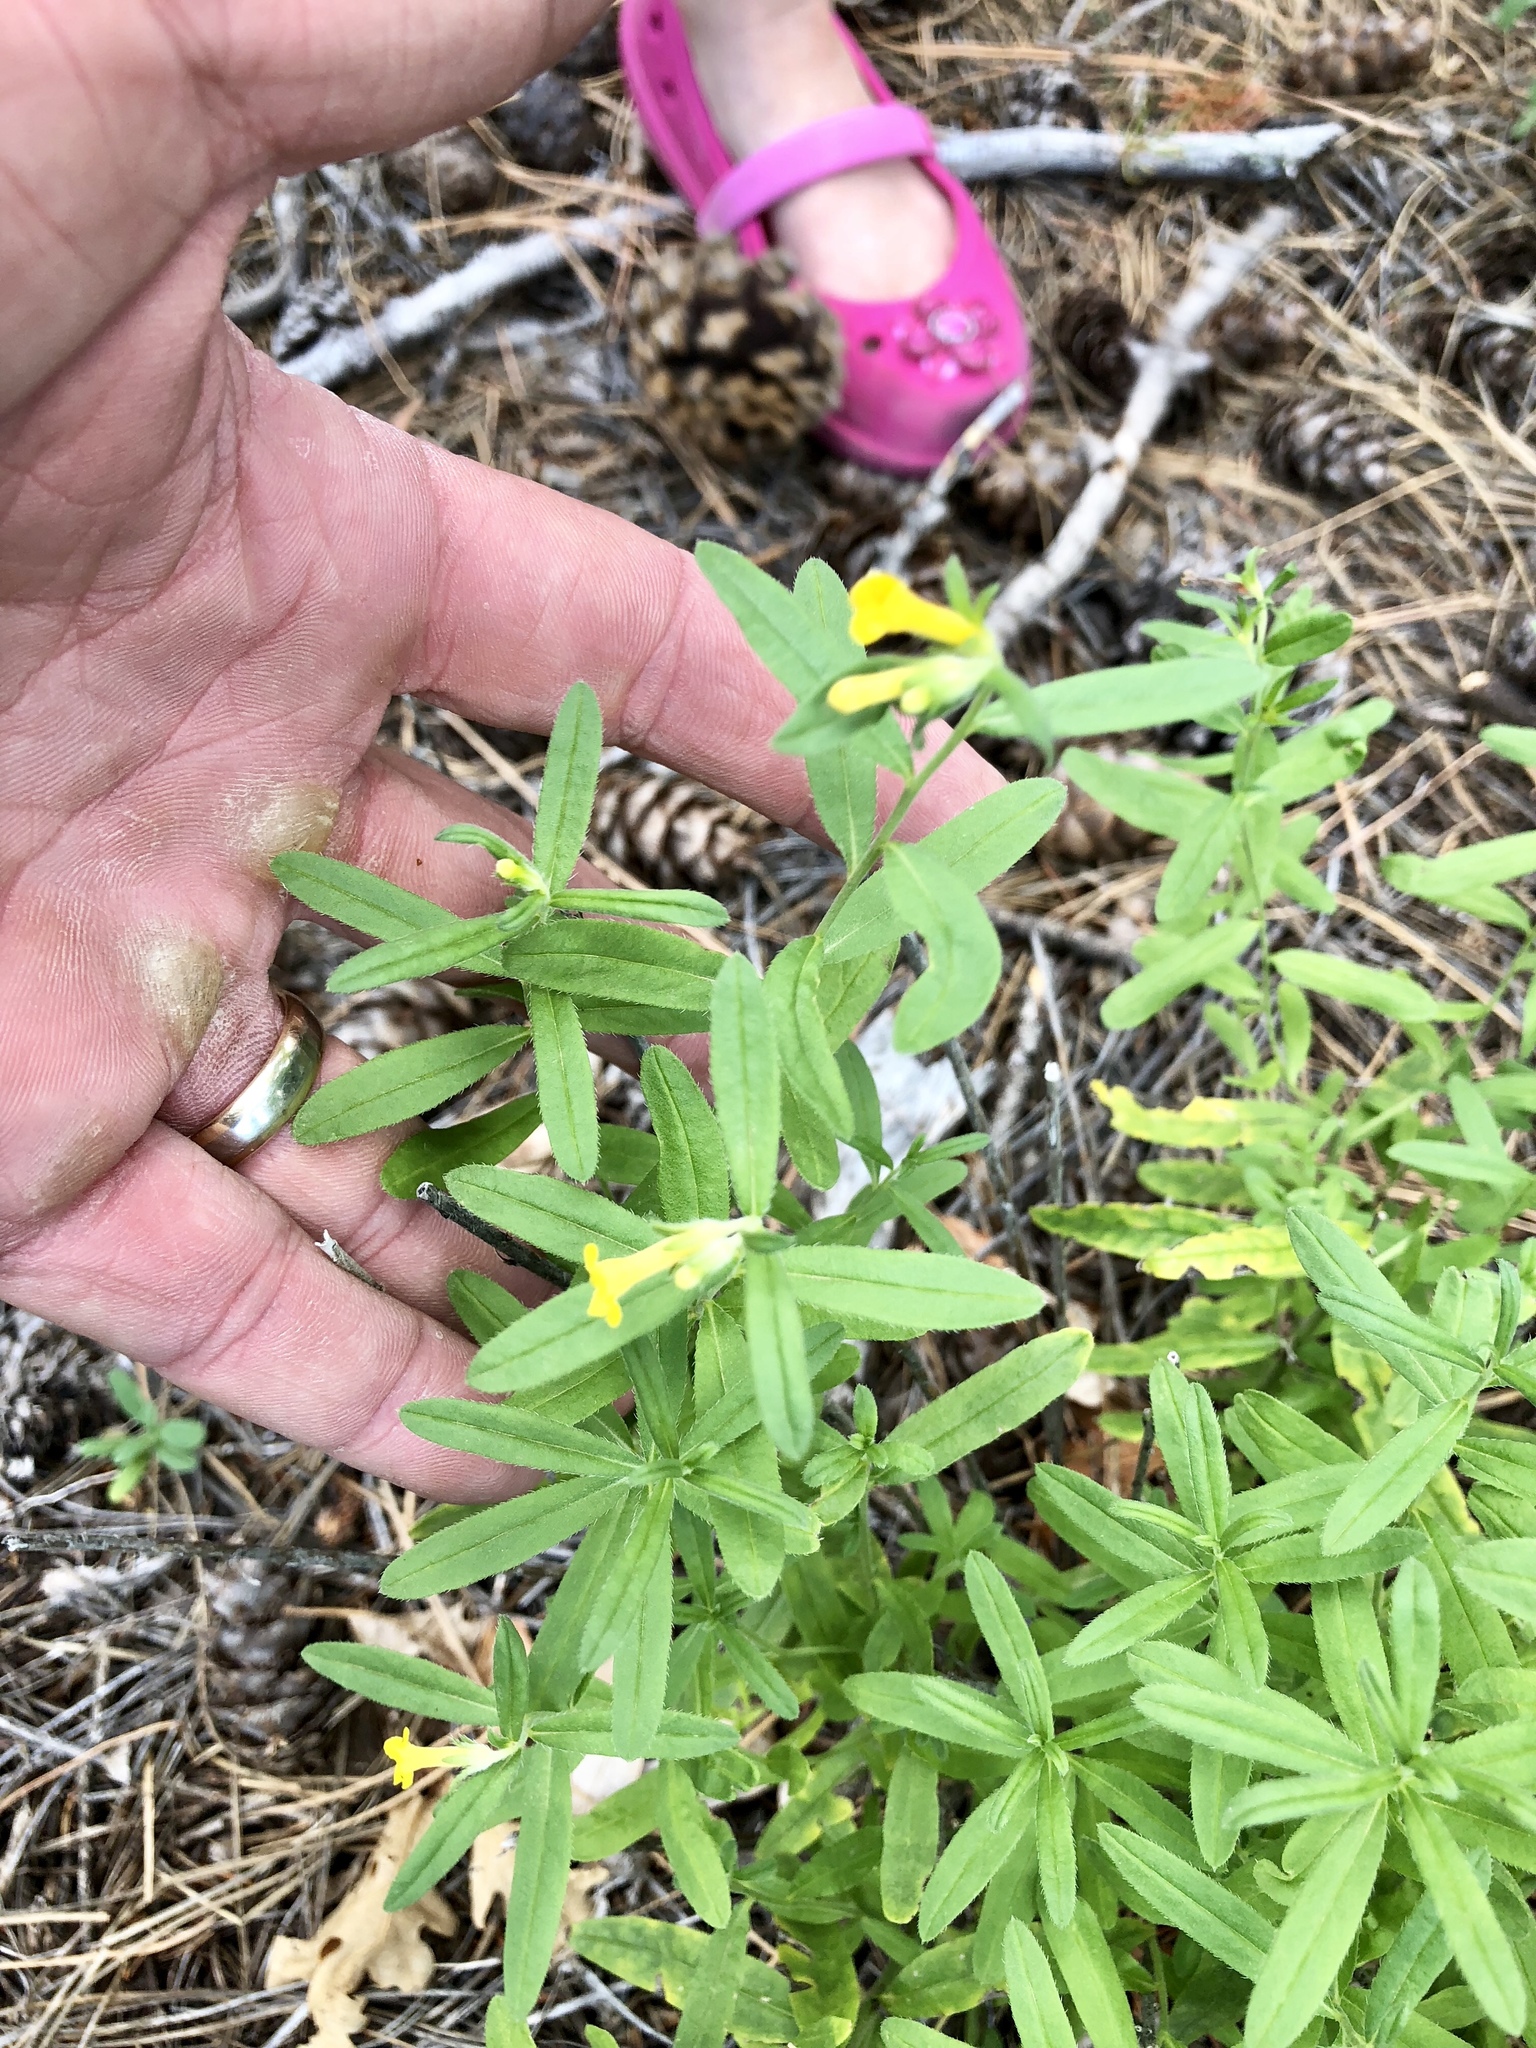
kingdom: Plantae
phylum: Tracheophyta
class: Magnoliopsida
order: Boraginales
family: Boraginaceae
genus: Lithospermum
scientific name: Lithospermum multiflorum
